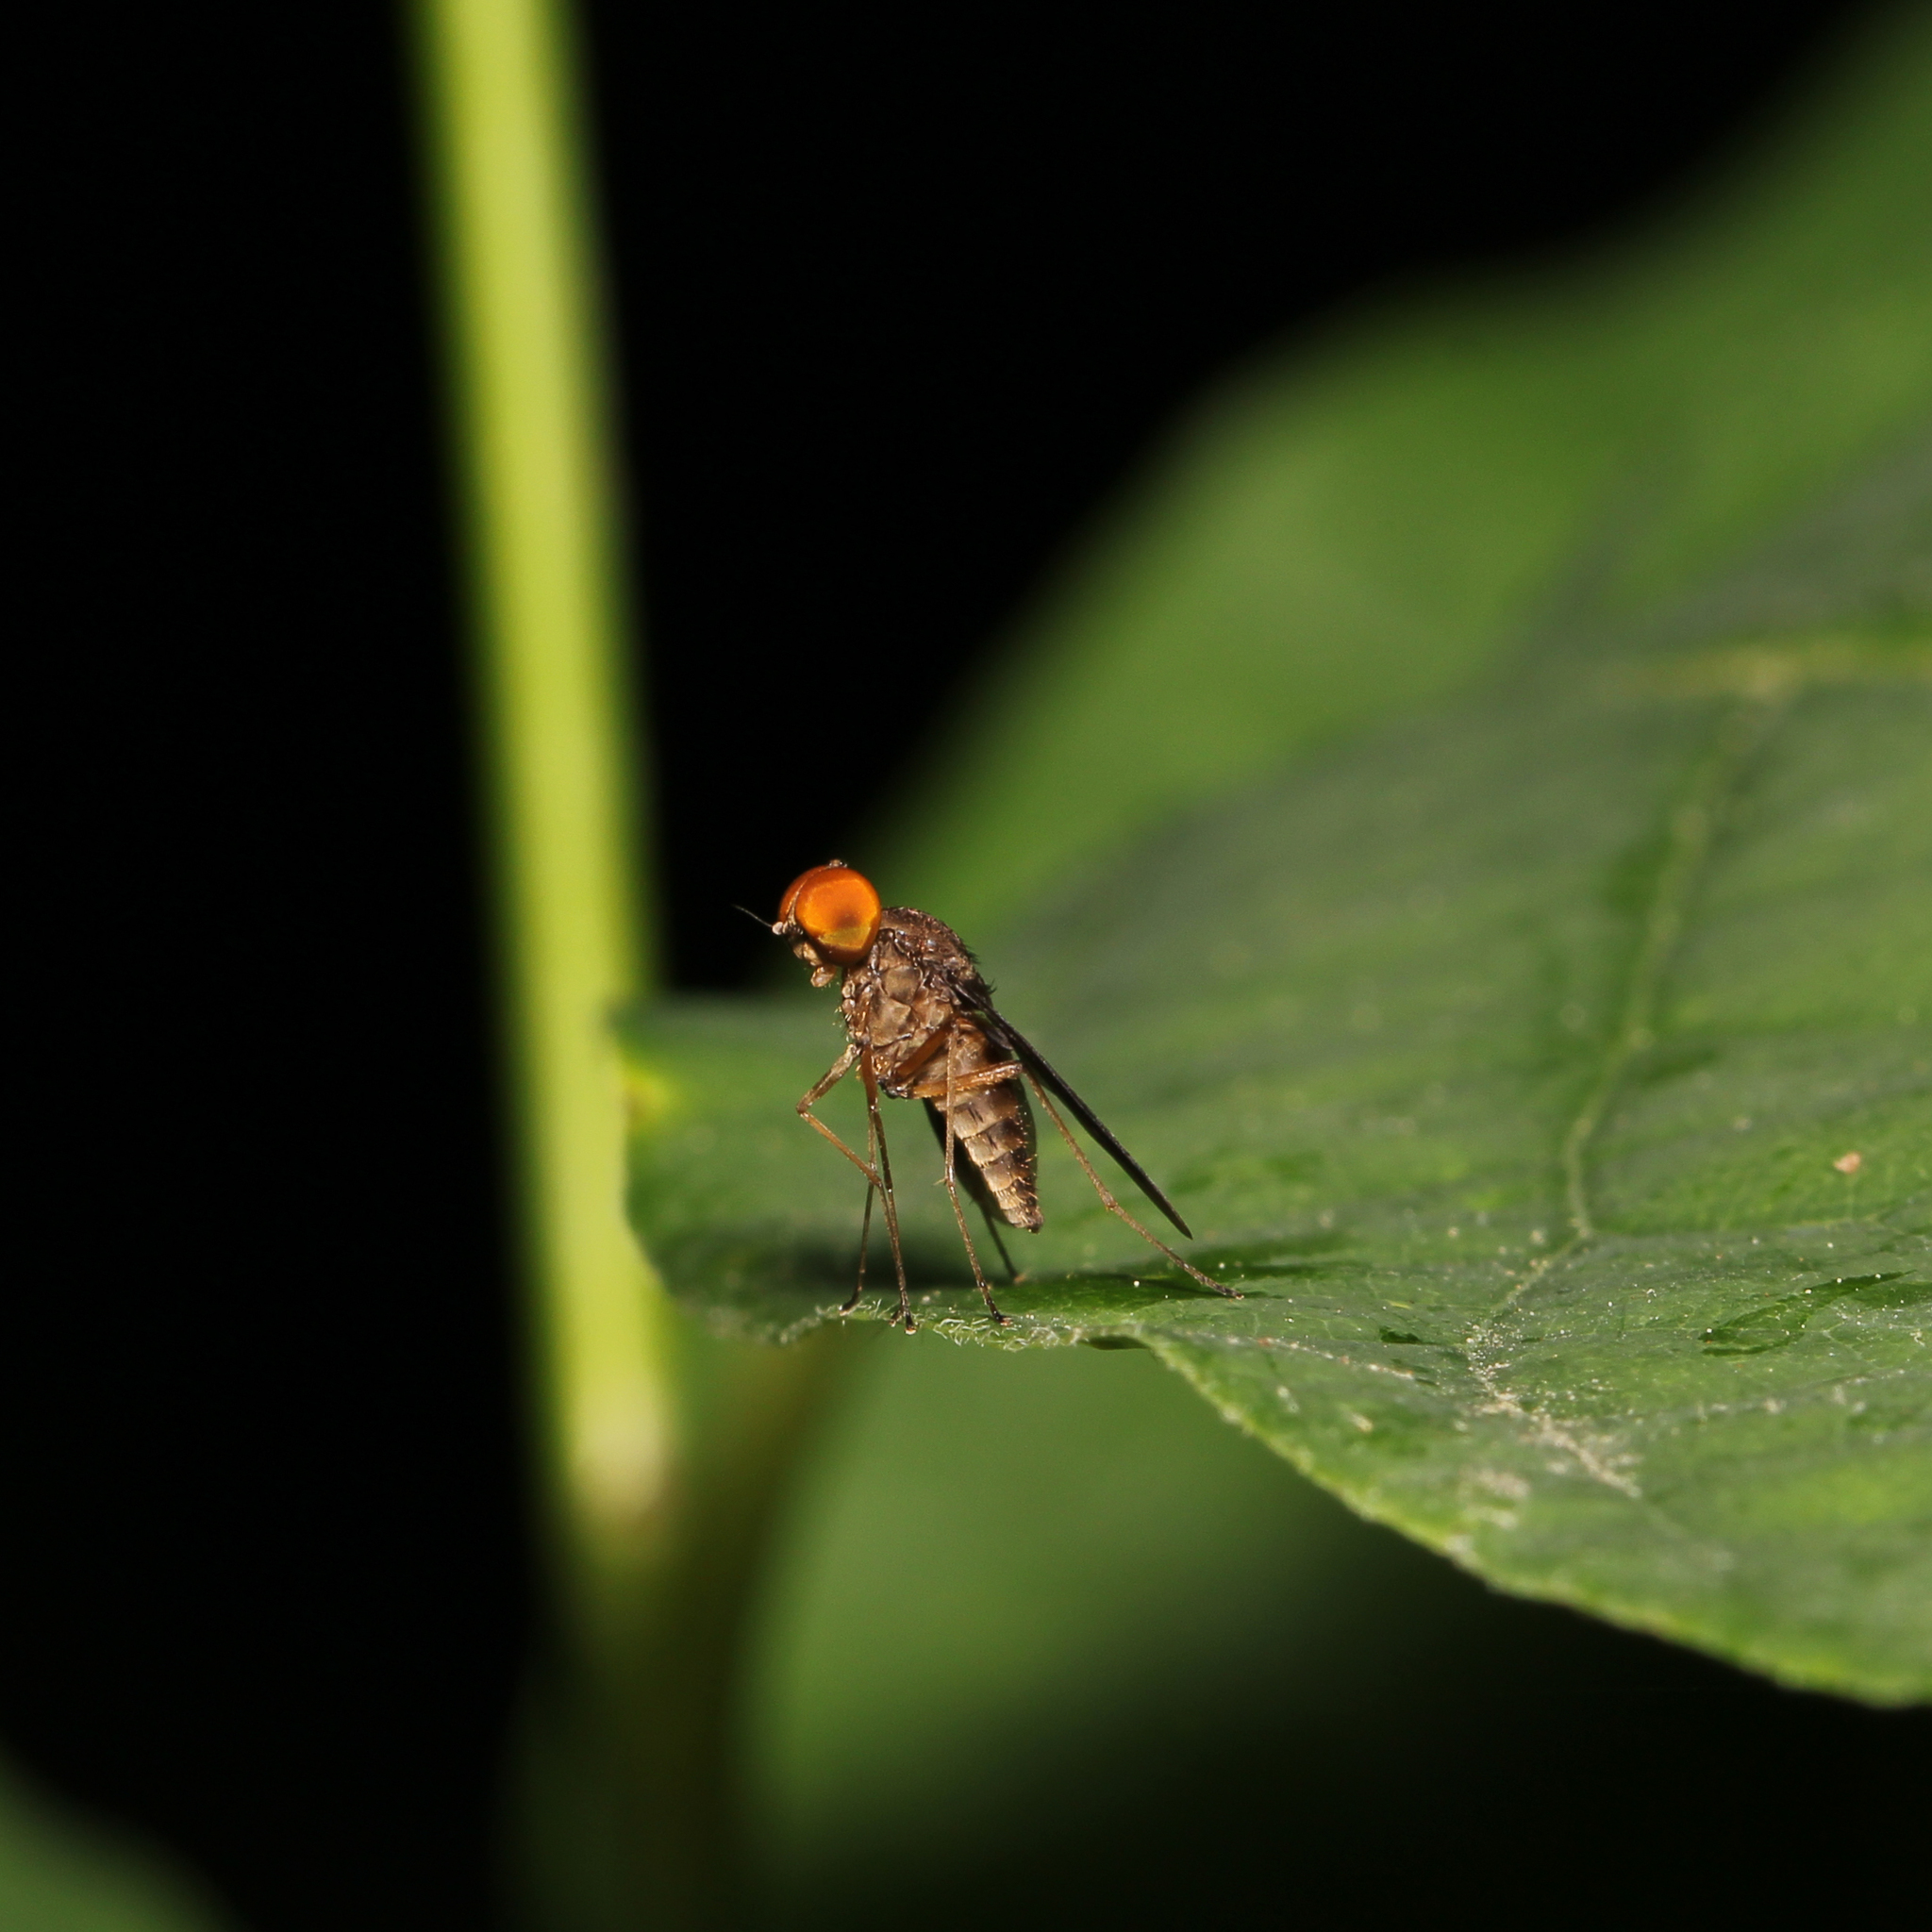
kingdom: Animalia
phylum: Arthropoda
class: Insecta
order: Diptera
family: Rhagionidae
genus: Chrysopilus
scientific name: Chrysopilus quadratus
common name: Quadrate snipe fly
